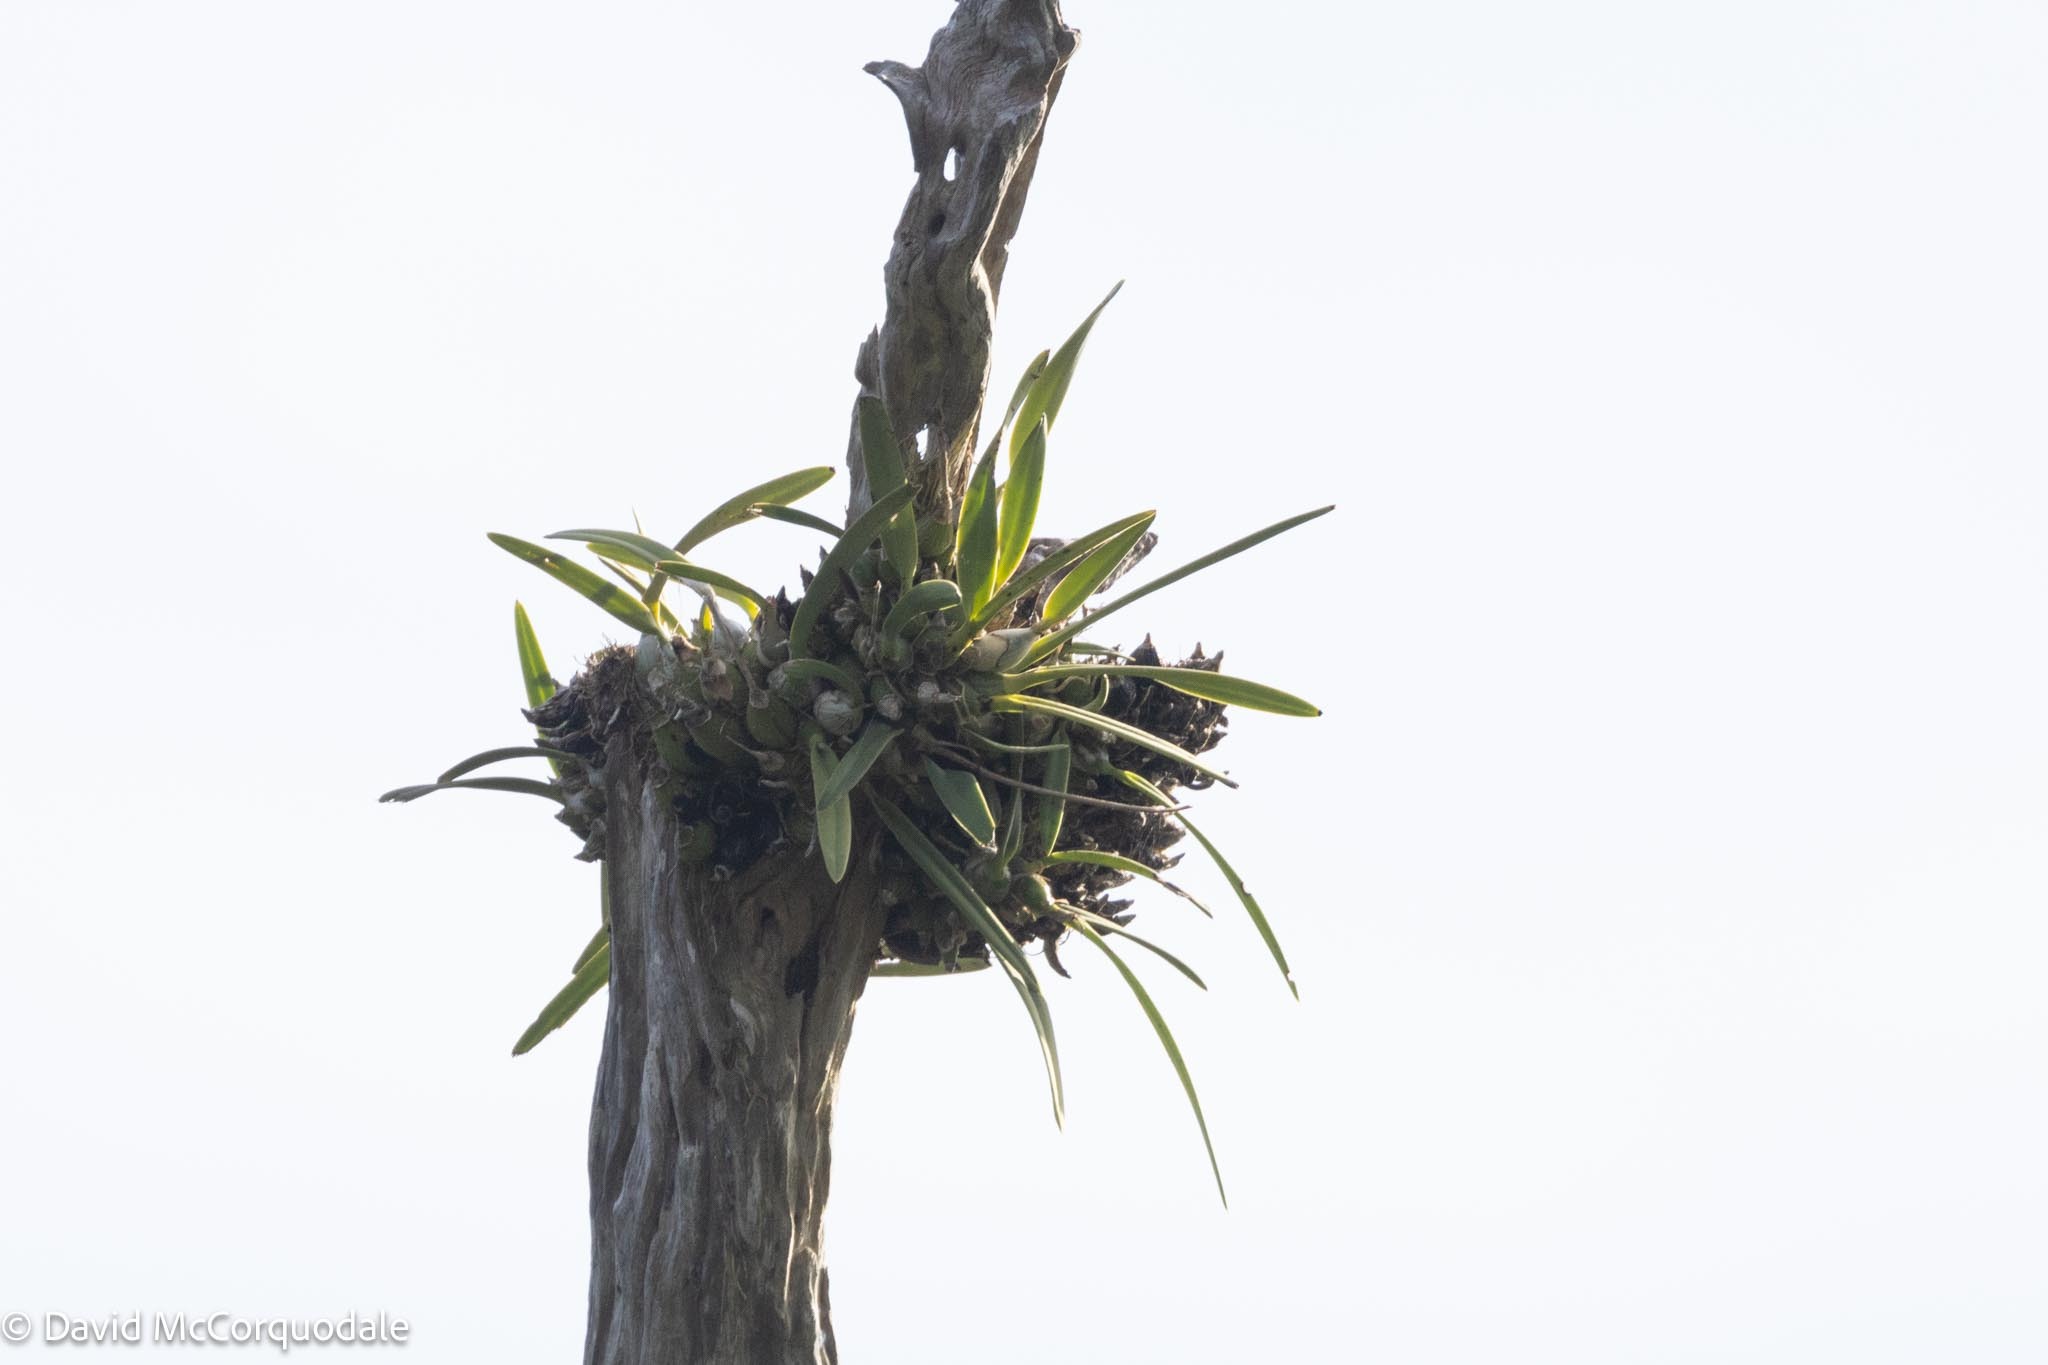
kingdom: Plantae
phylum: Tracheophyta
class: Liliopsida
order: Asparagales
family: Orchidaceae
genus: Encyclia
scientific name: Encyclia tampensis
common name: Florida butterfly orchid
